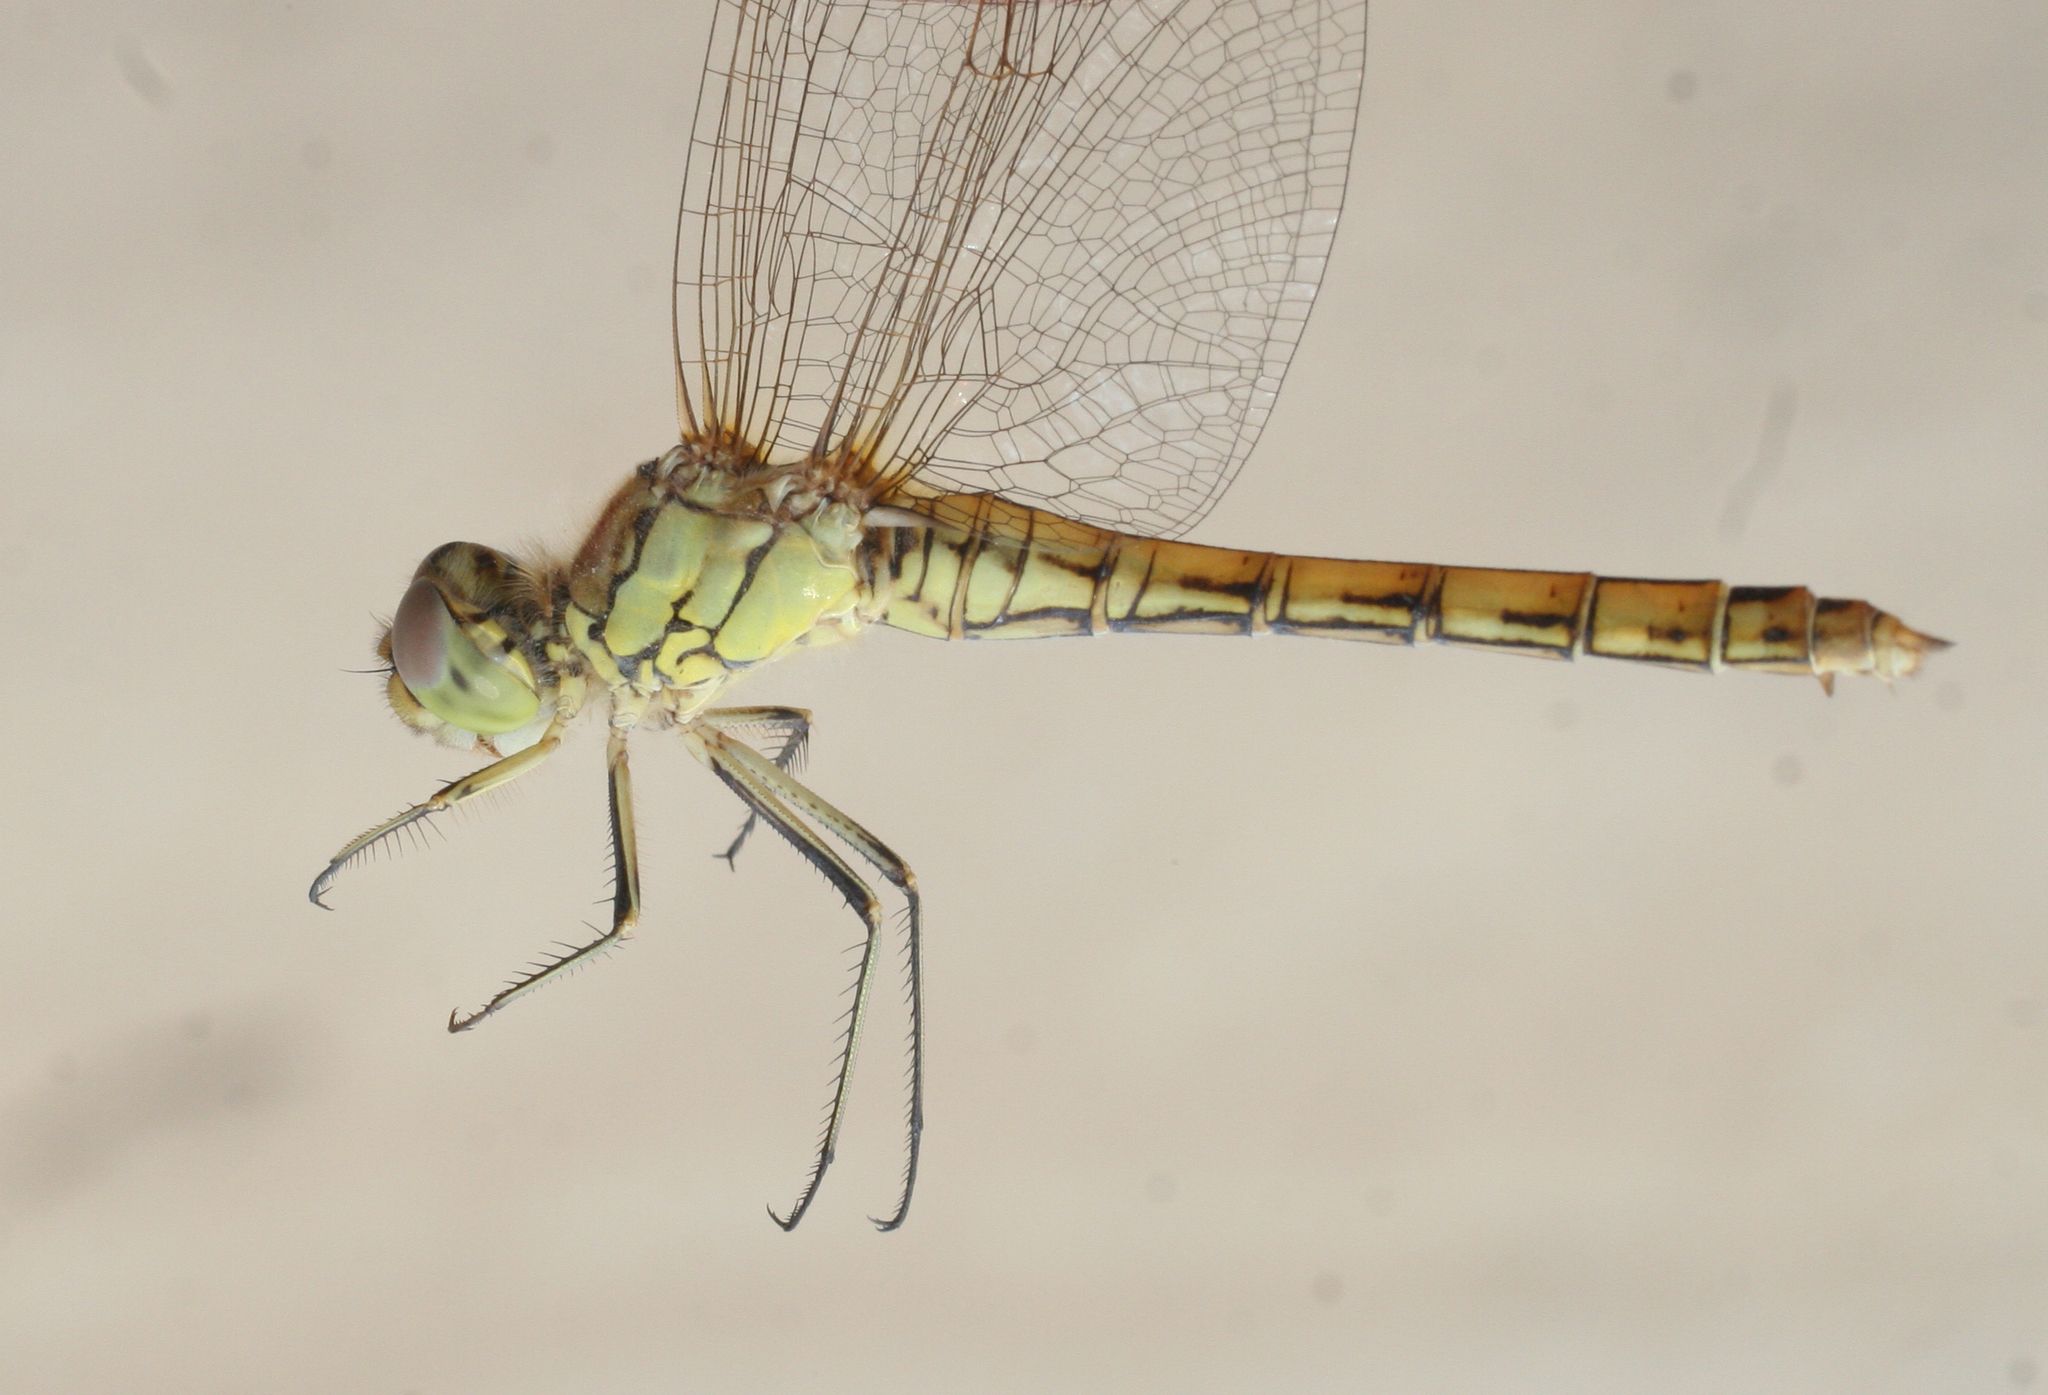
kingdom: Animalia
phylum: Arthropoda
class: Insecta
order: Odonata
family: Libellulidae
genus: Sympetrum
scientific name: Sympetrum vulgatum
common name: Vagrant darter
